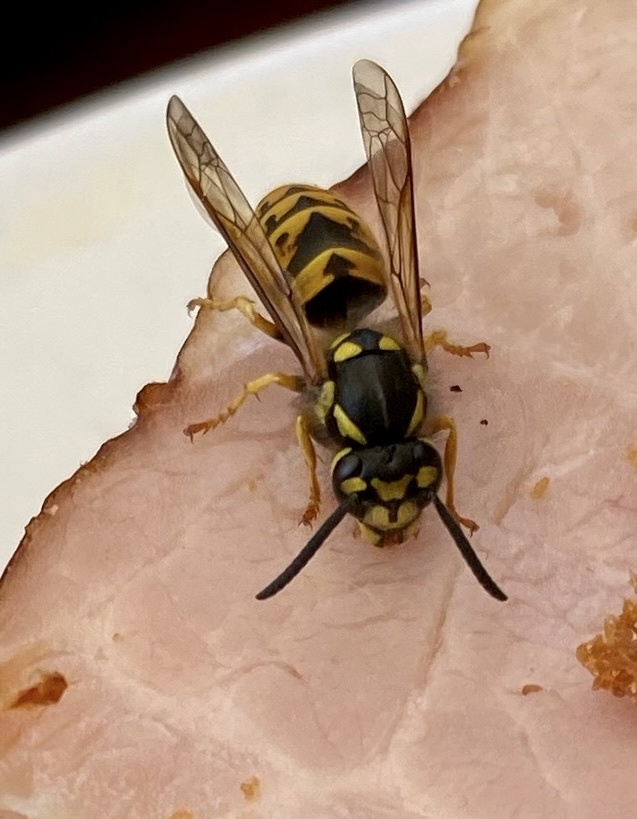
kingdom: Animalia
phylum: Arthropoda
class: Insecta
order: Hymenoptera
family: Vespidae
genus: Vespula
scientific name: Vespula germanica
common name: German wasp
